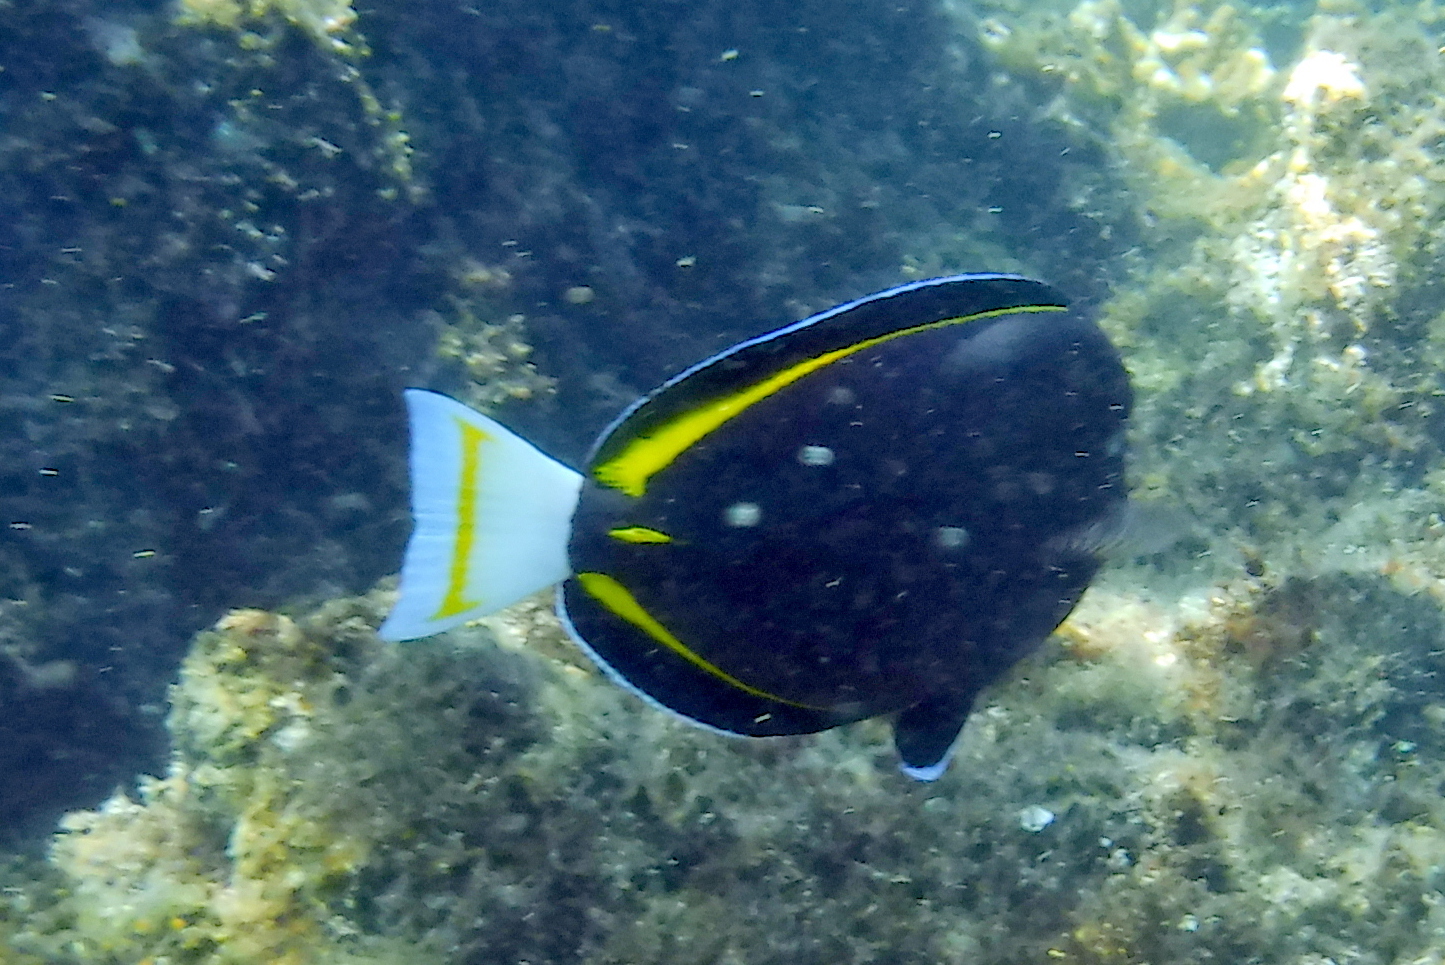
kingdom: Animalia
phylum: Chordata
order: Perciformes
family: Acanthuridae
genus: Acanthurus
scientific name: Acanthurus nigricans
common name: Whitecheek surgeonfish
